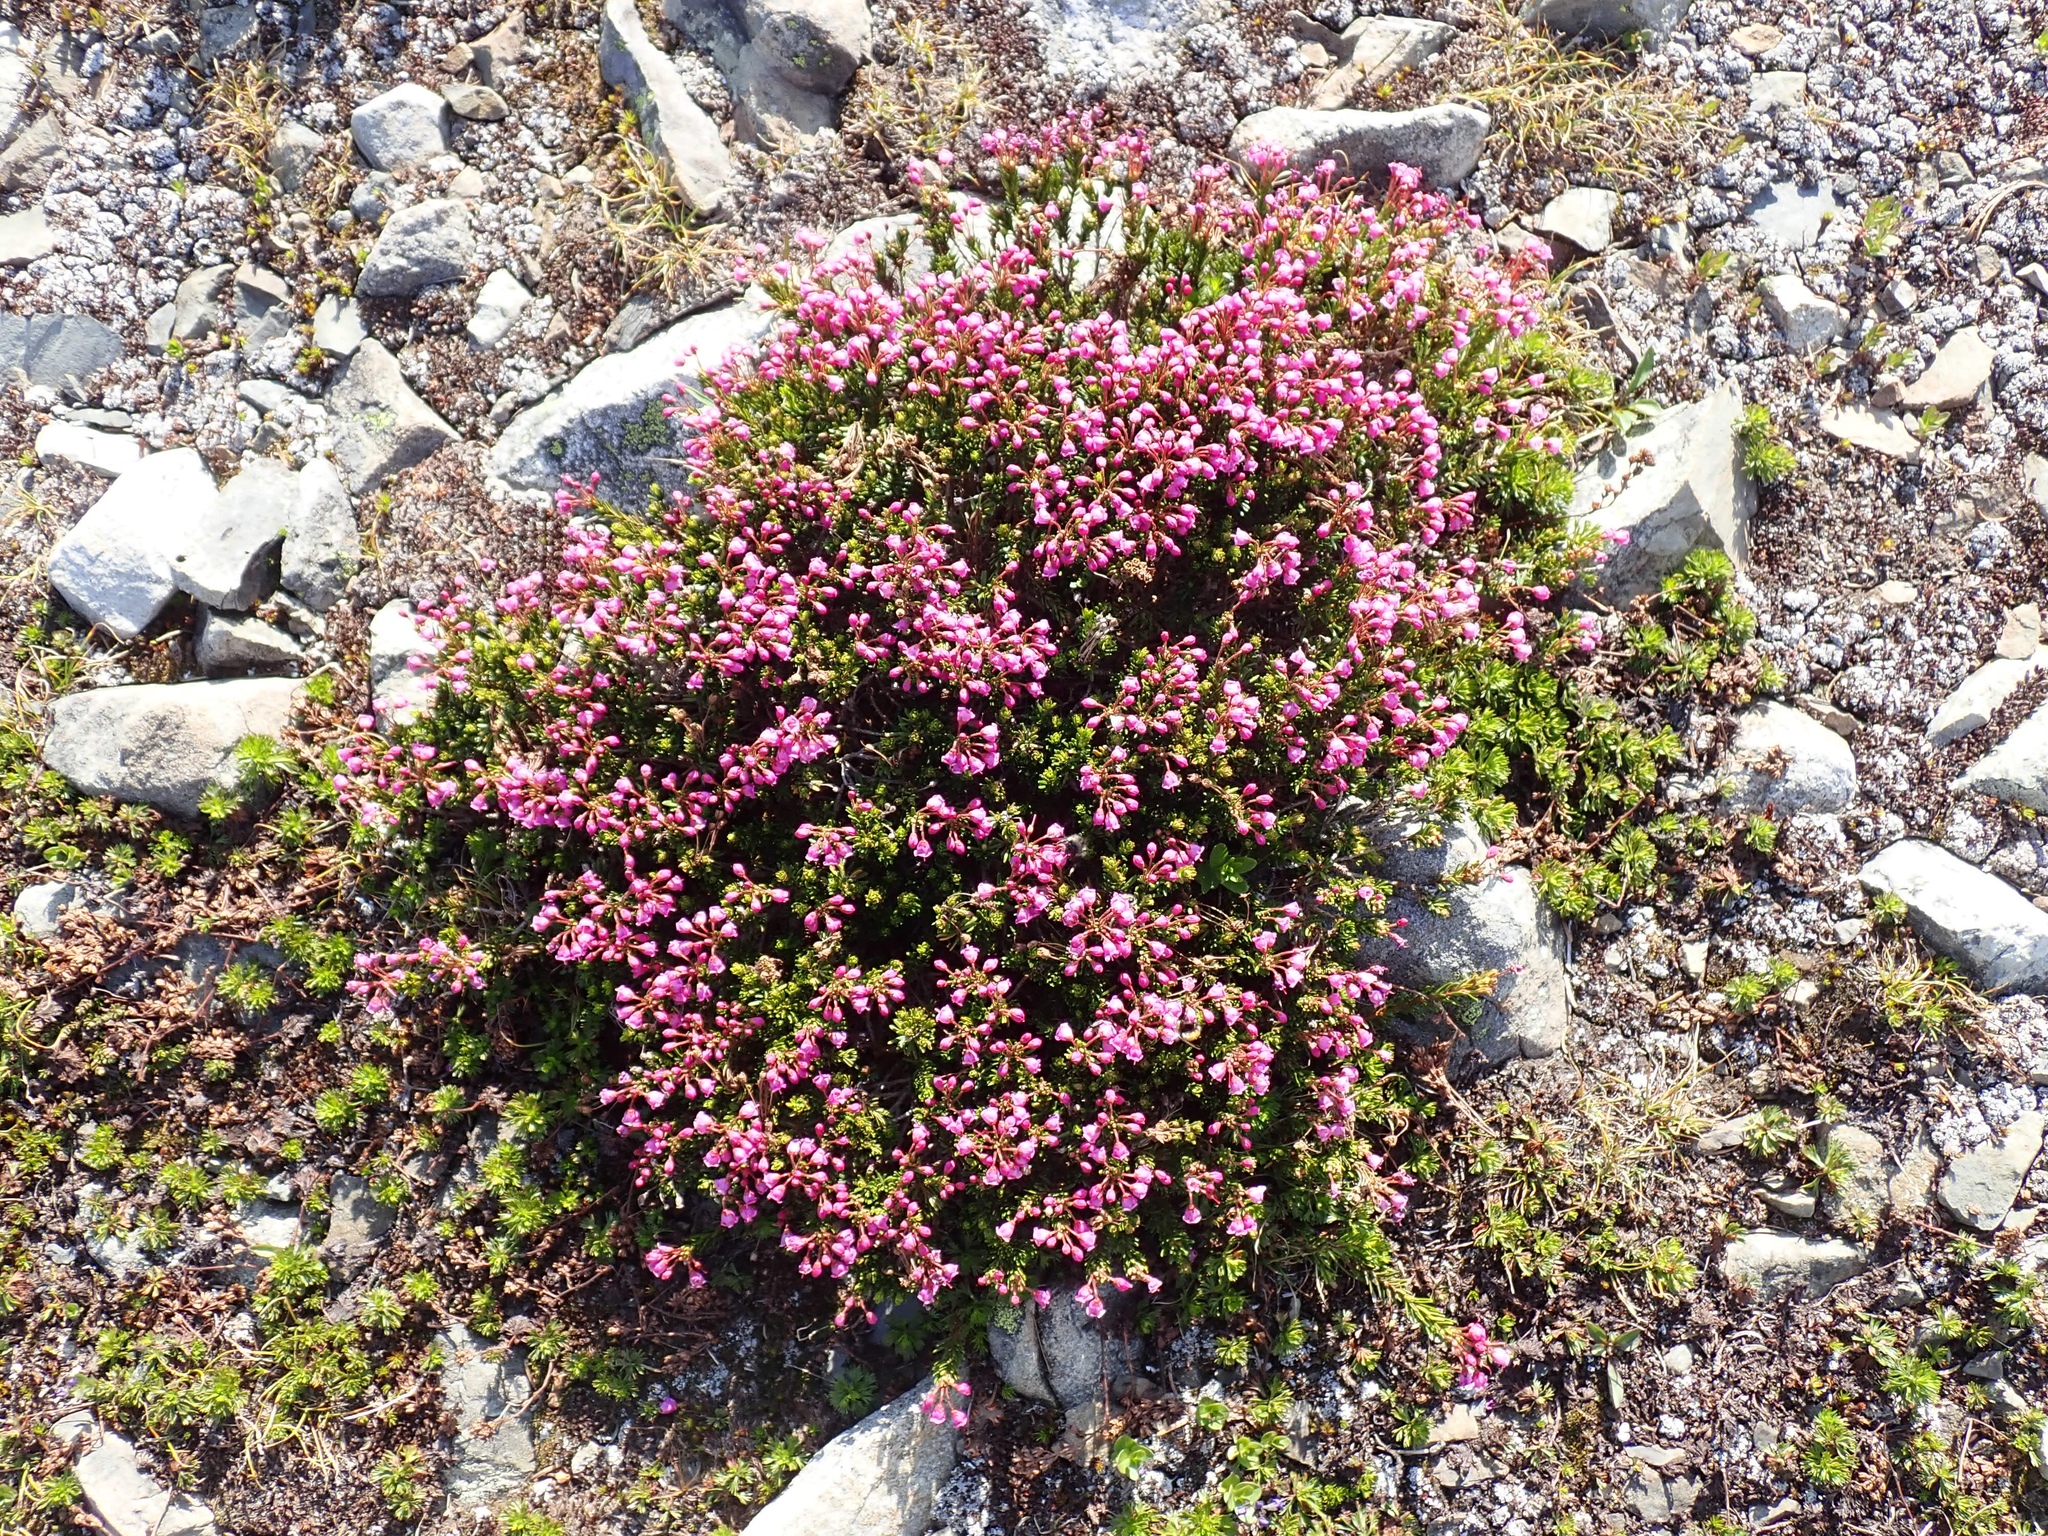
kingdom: Plantae
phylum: Tracheophyta
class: Magnoliopsida
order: Ericales
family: Ericaceae
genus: Phyllodoce
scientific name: Phyllodoce empetriformis
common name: Pink mountain heather
